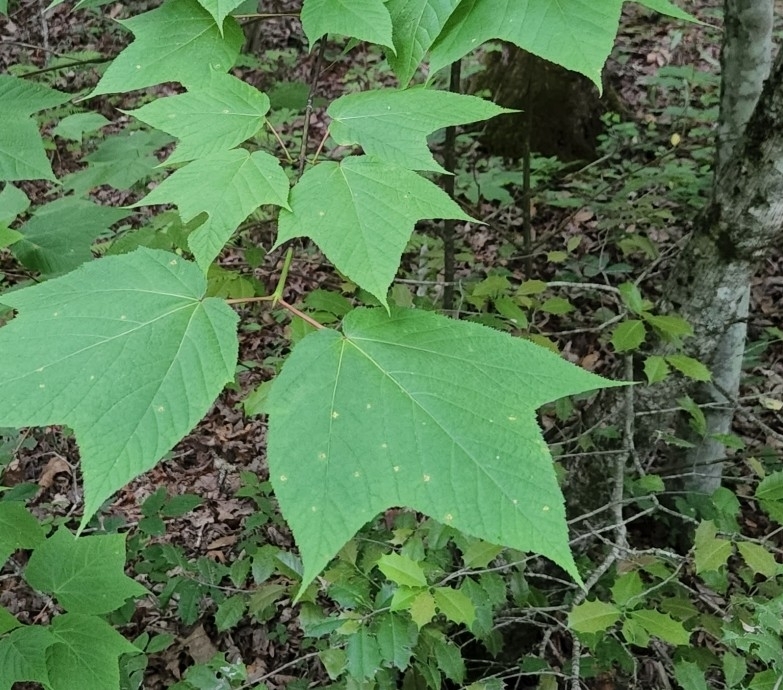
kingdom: Plantae
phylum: Tracheophyta
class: Magnoliopsida
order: Sapindales
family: Sapindaceae
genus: Acer
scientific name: Acer pensylvanicum
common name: Moosewood
